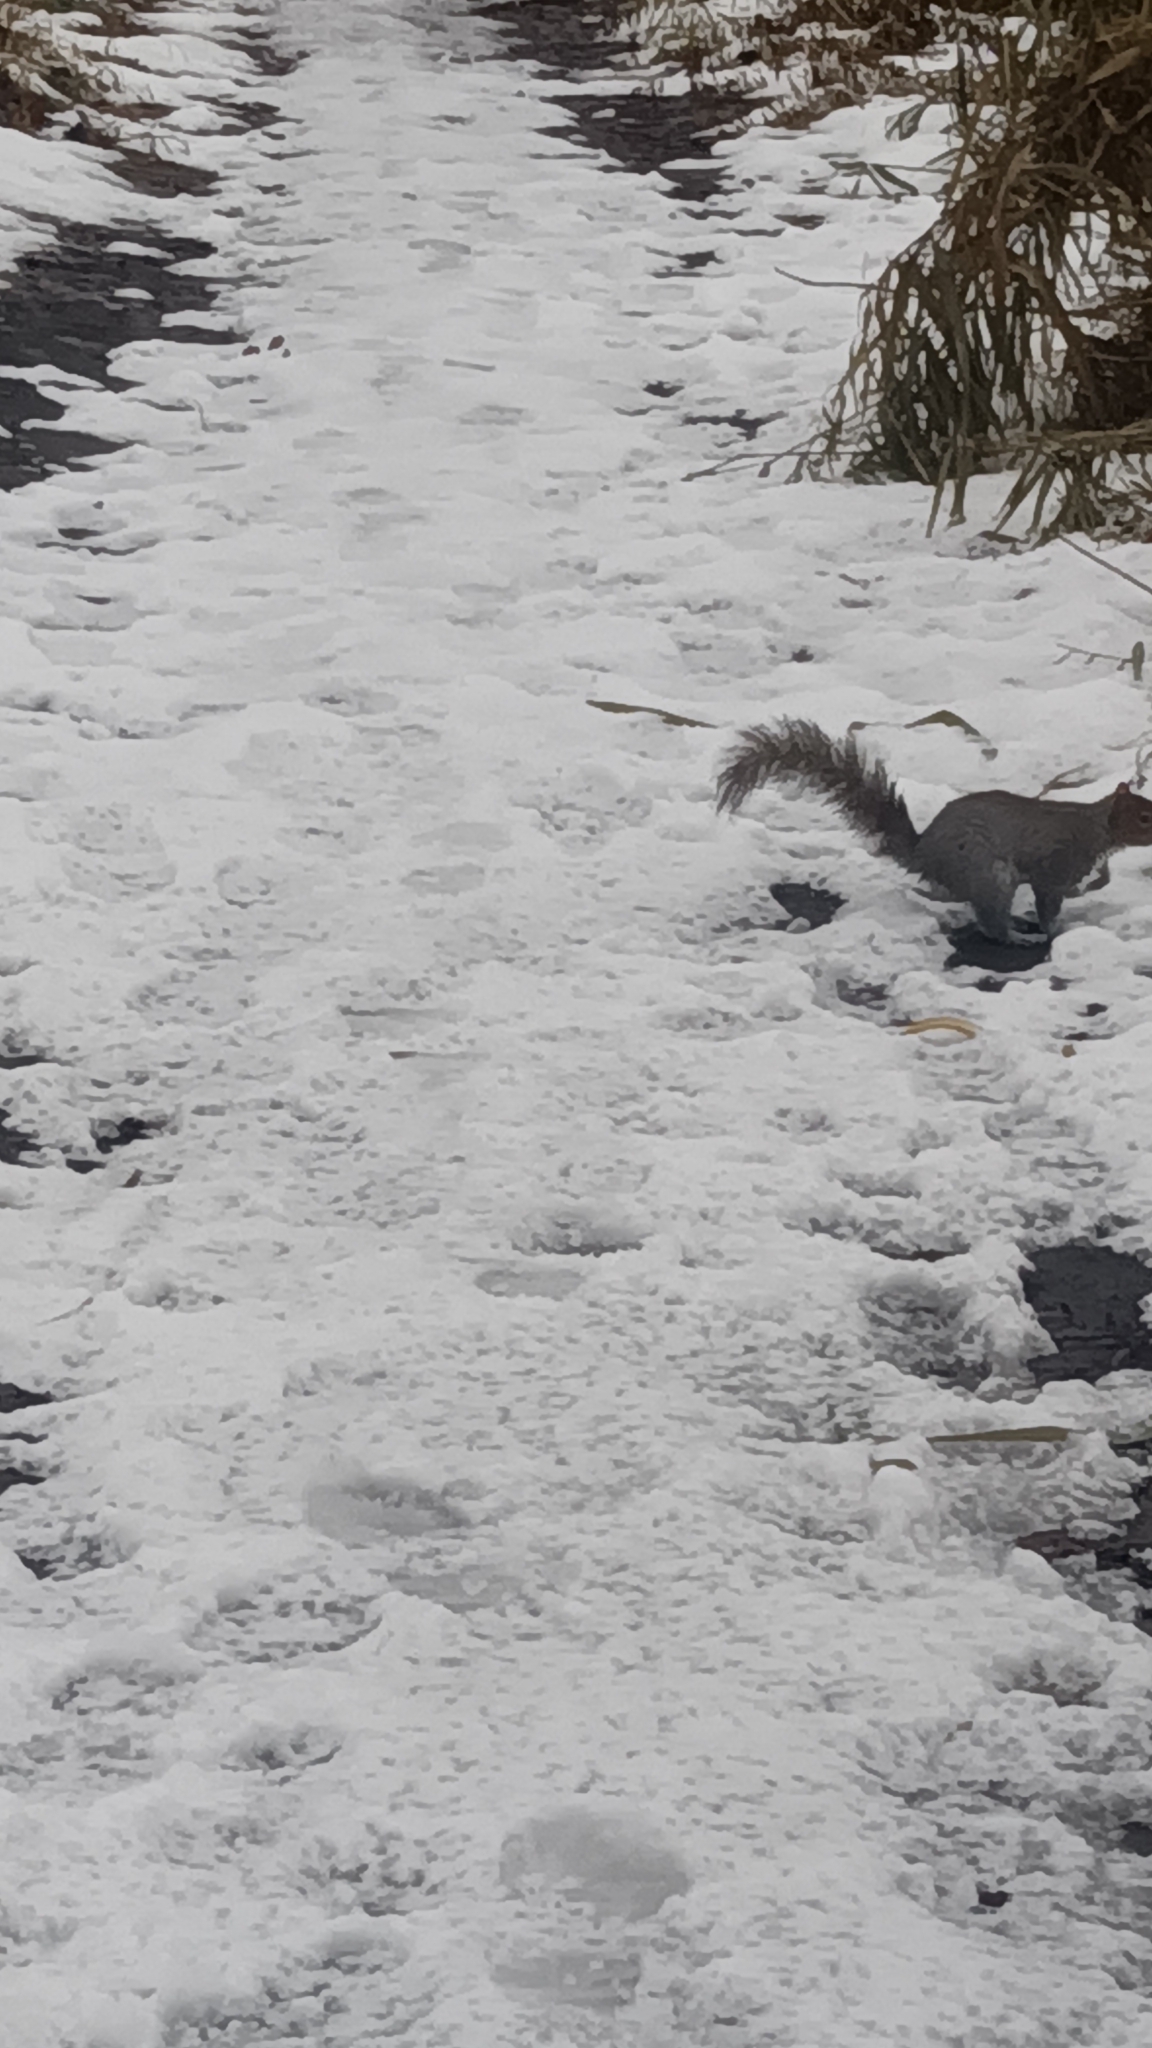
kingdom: Animalia
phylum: Chordata
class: Mammalia
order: Rodentia
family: Sciuridae
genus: Sciurus
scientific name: Sciurus carolinensis
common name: Eastern gray squirrel
